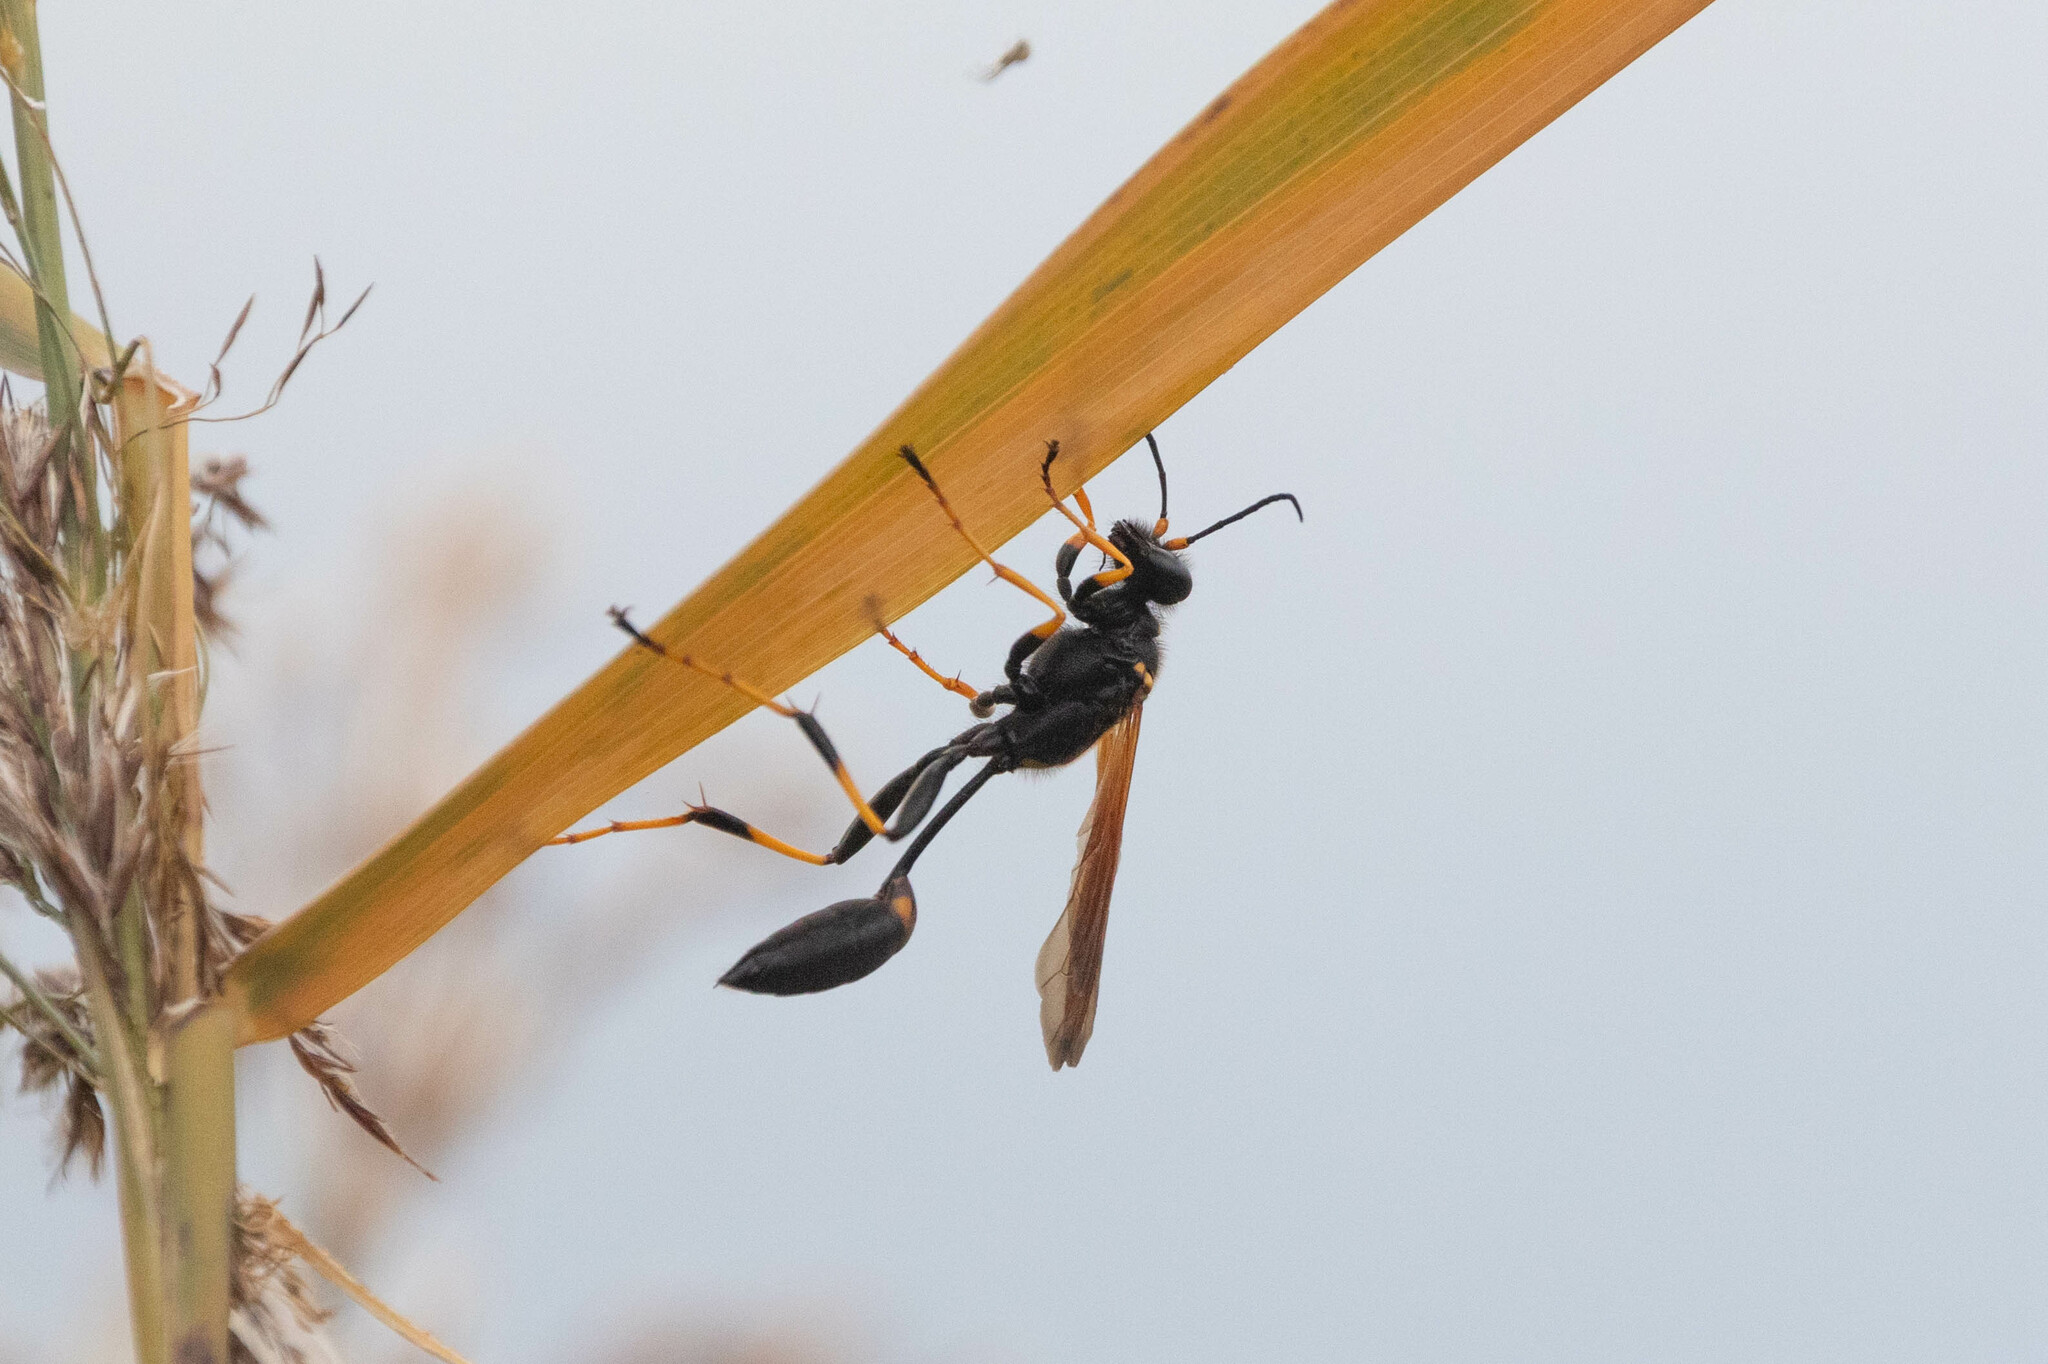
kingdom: Animalia
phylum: Arthropoda
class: Insecta
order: Hymenoptera
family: Sphecidae
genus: Sceliphron
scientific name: Sceliphron caementarium
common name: Mud dauber
